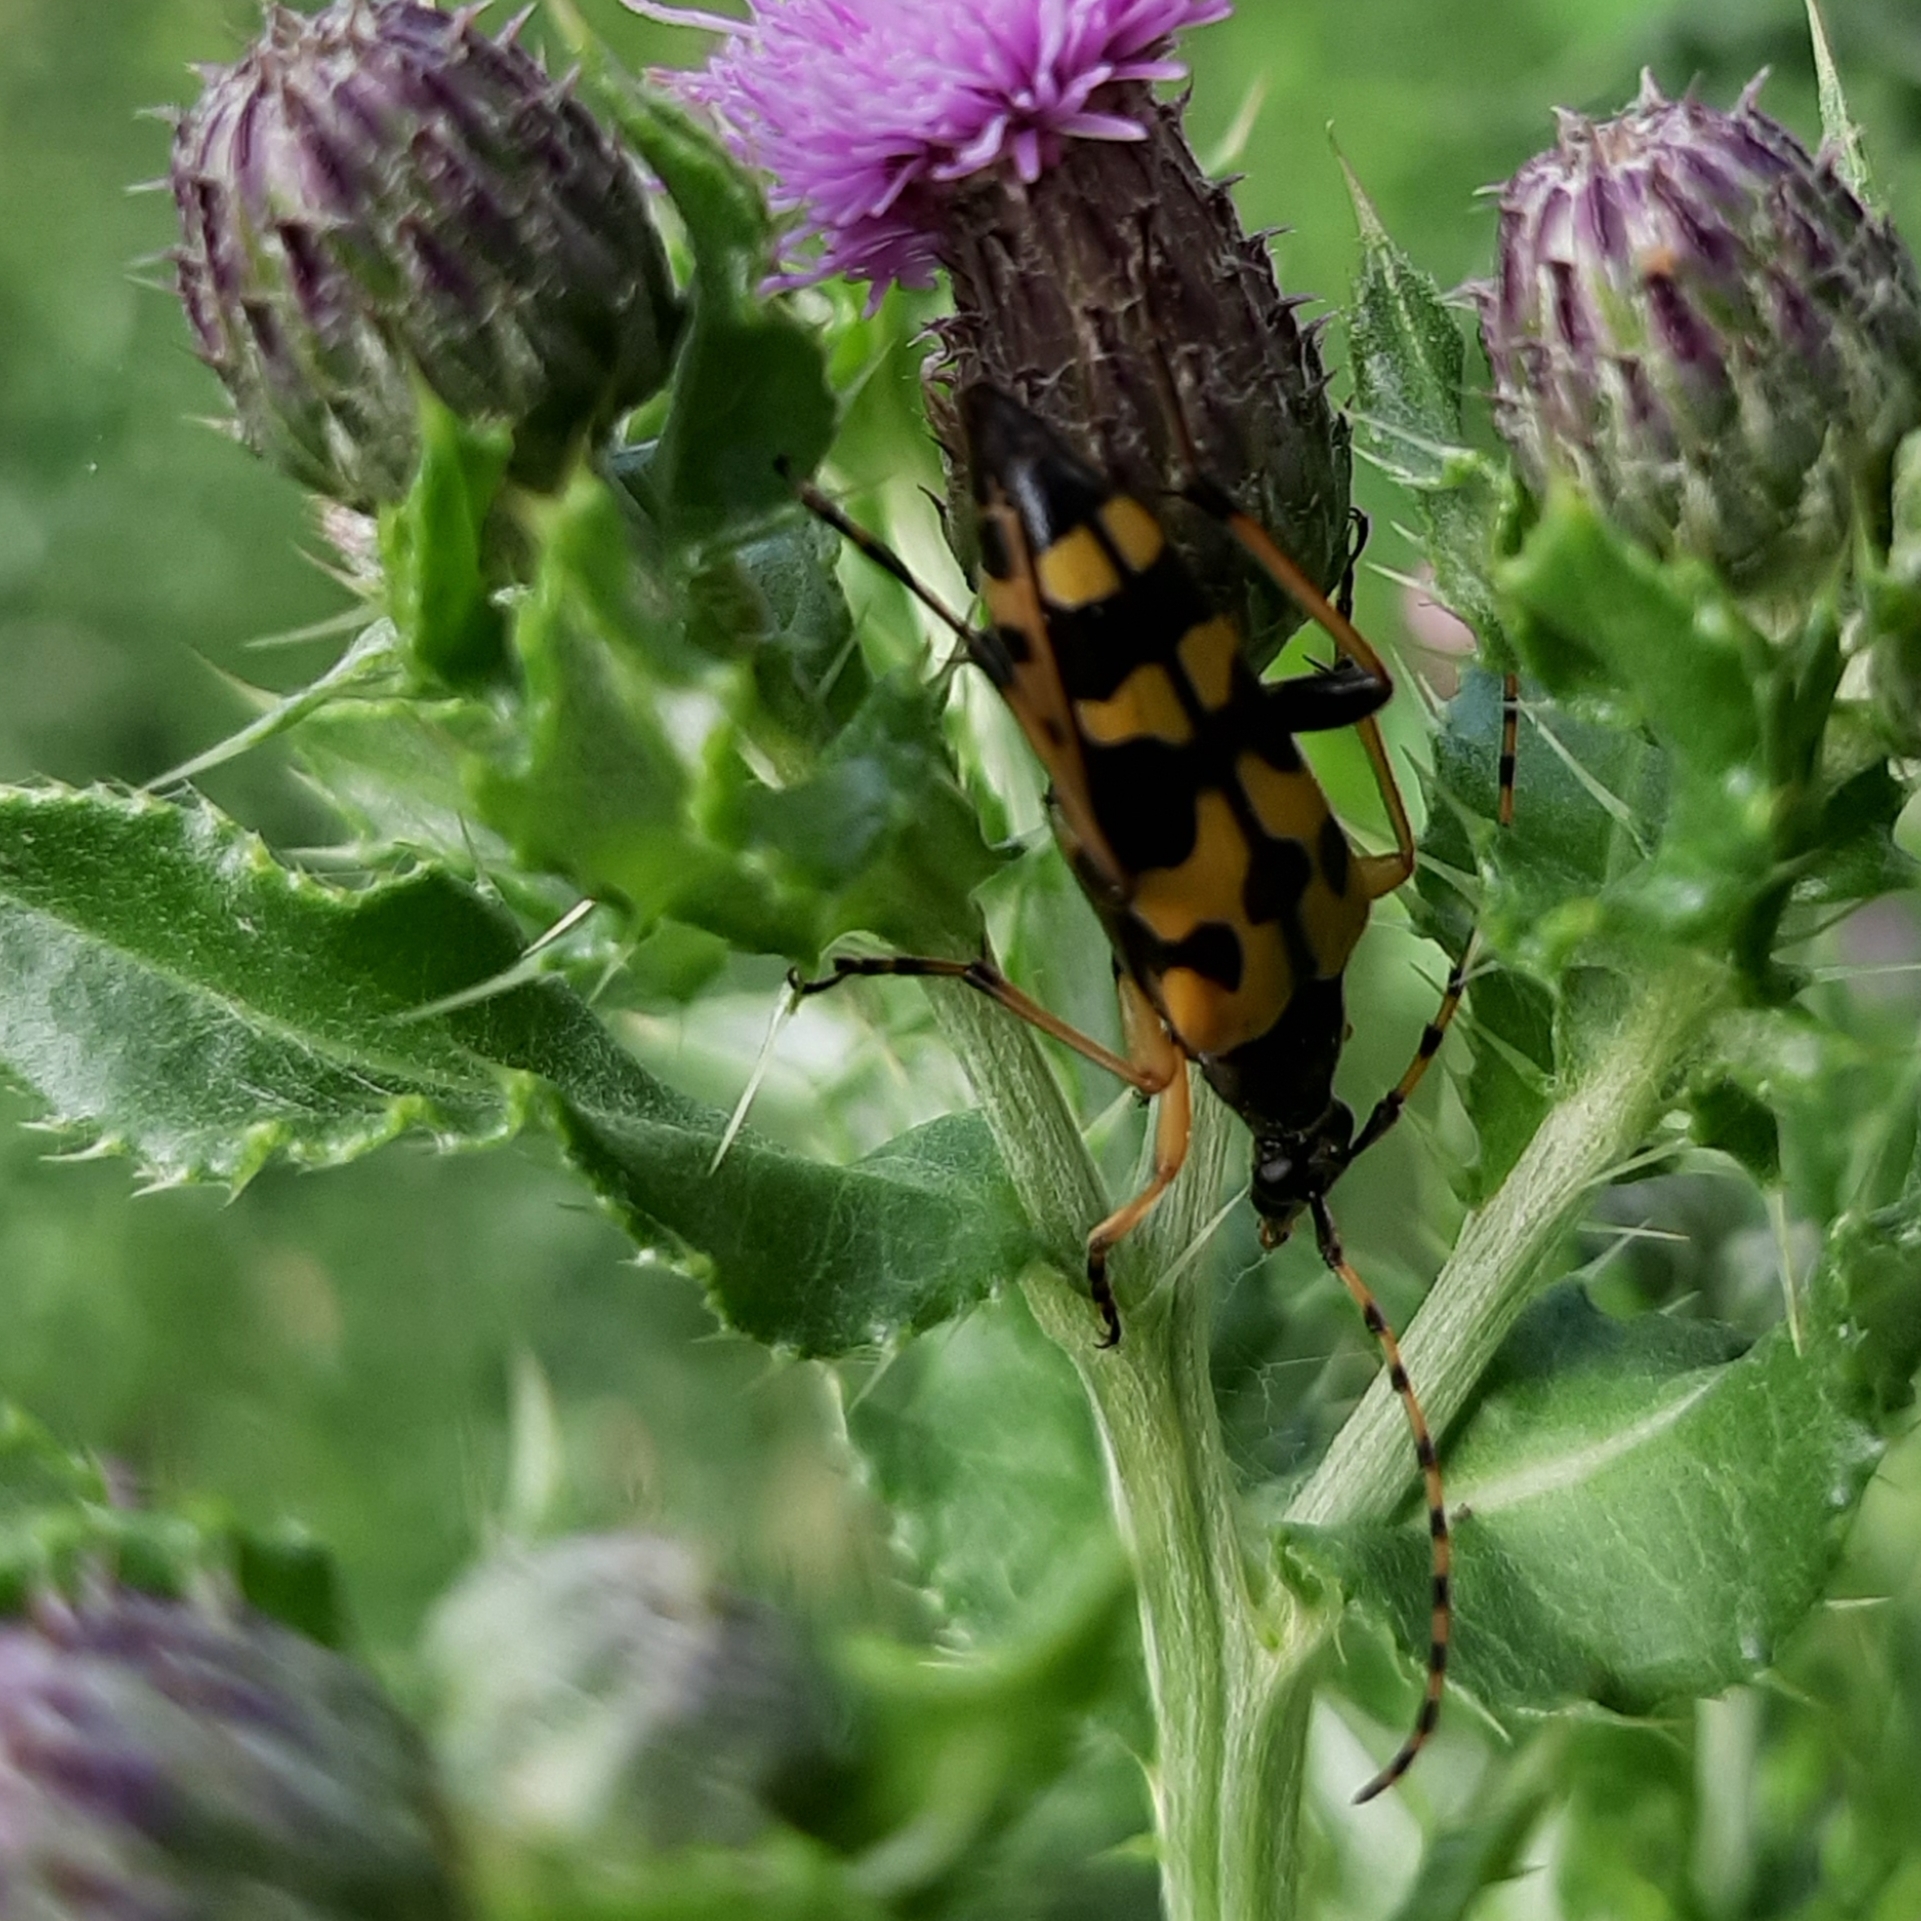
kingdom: Animalia
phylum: Arthropoda
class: Insecta
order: Coleoptera
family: Cerambycidae
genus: Rutpela
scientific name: Rutpela maculata
